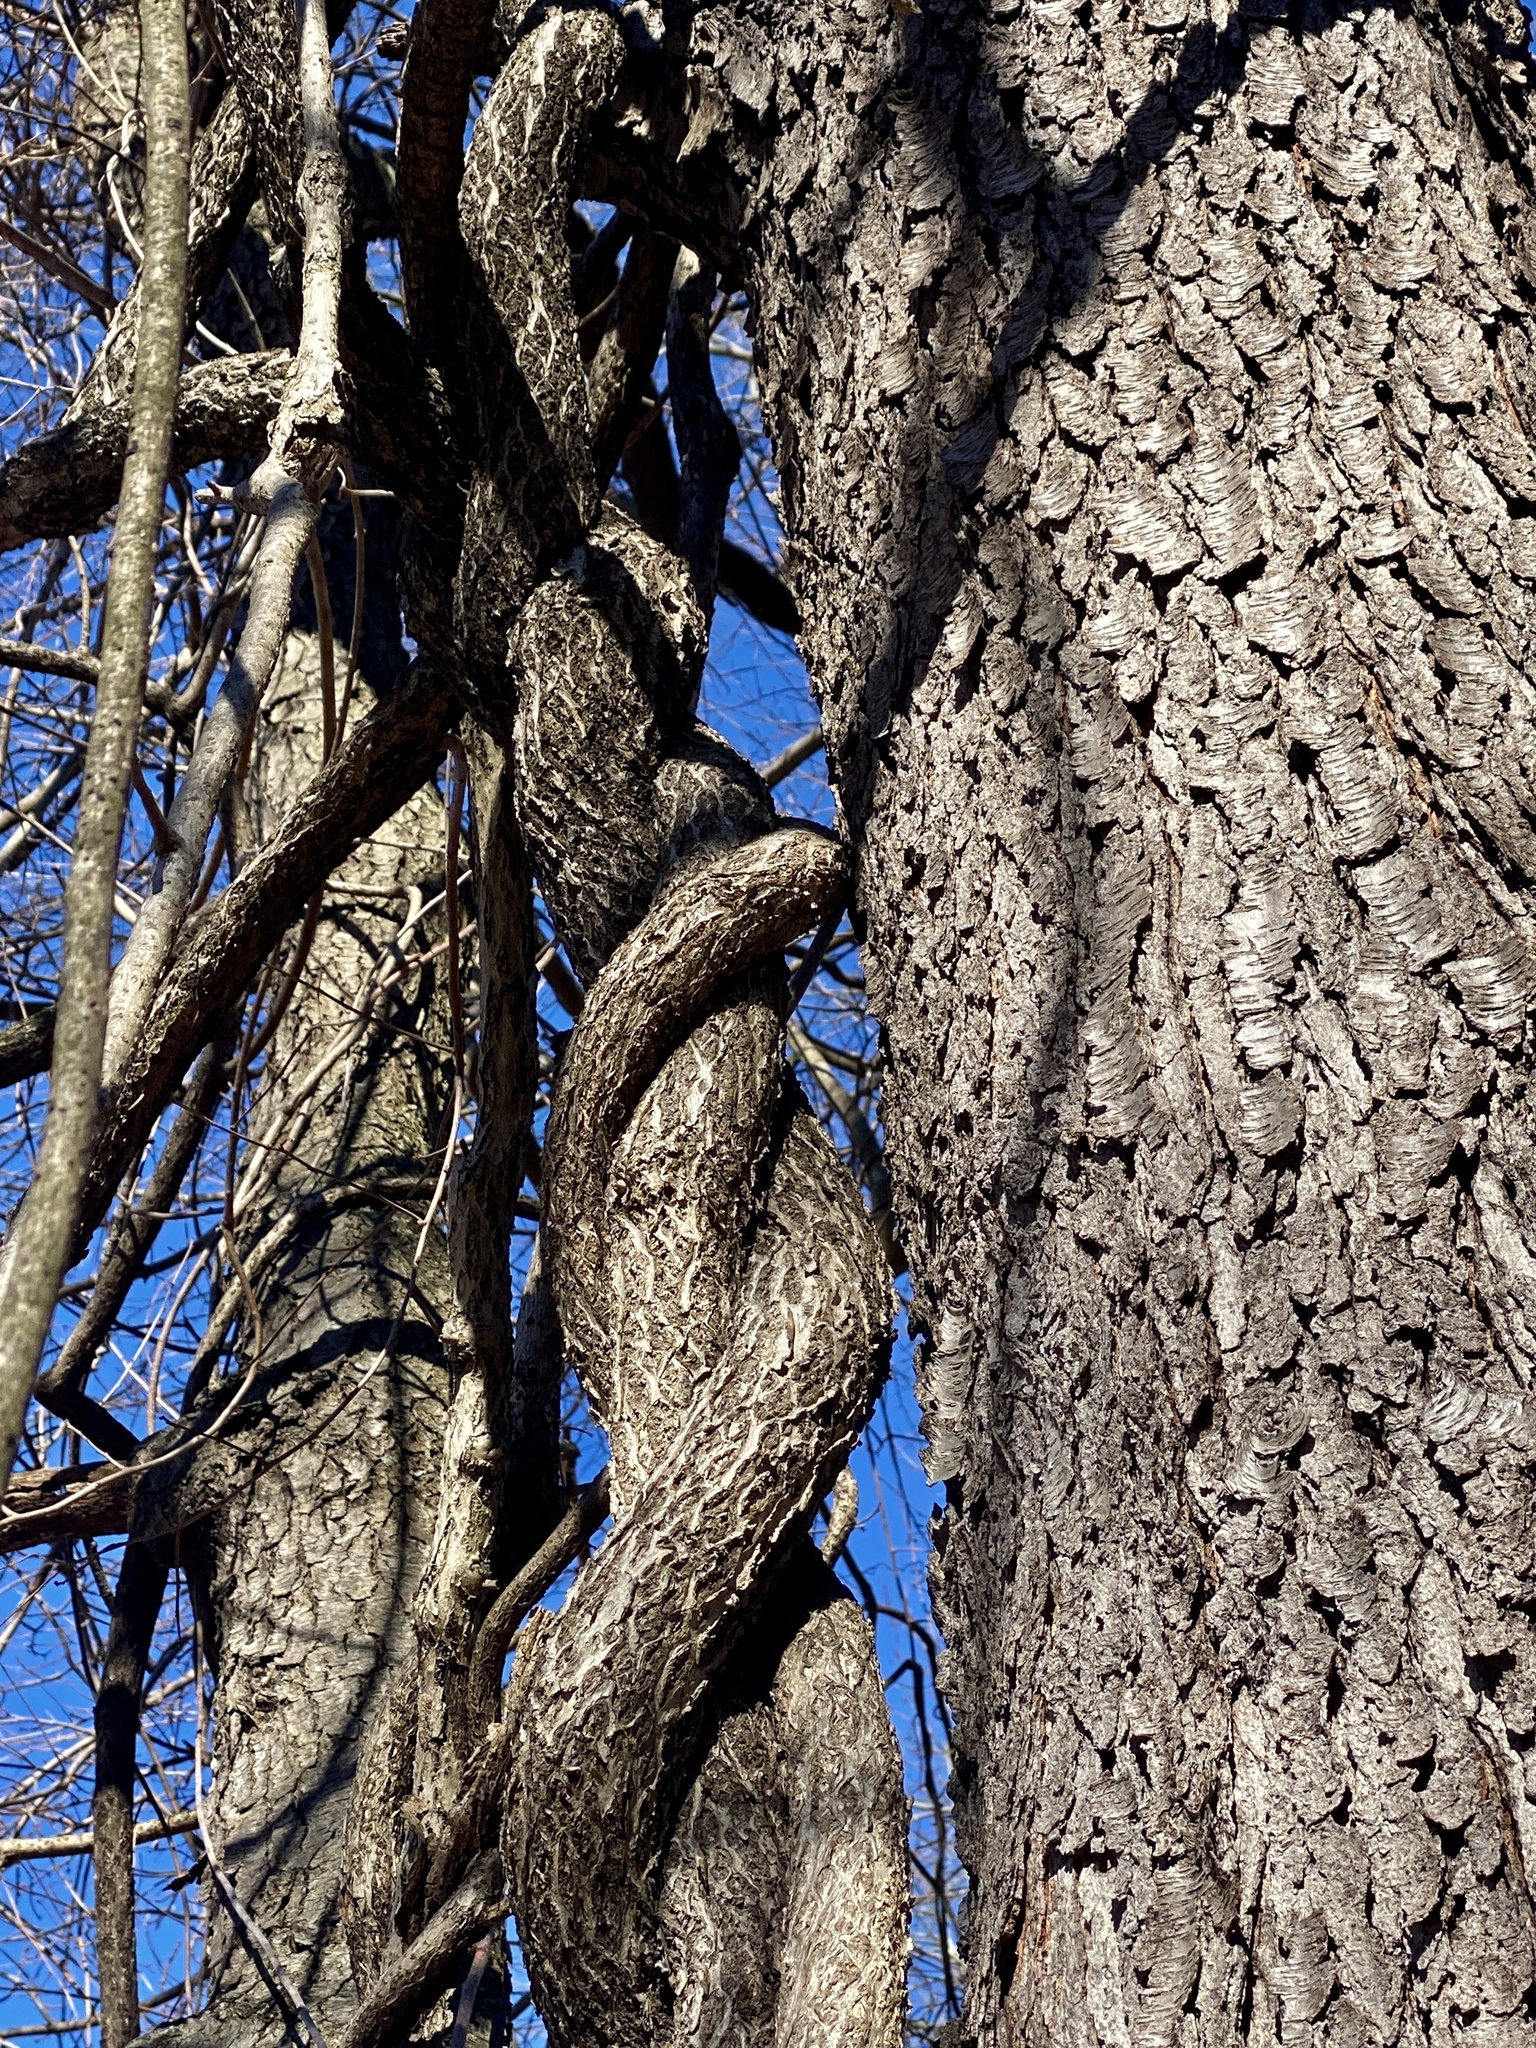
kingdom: Plantae
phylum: Tracheophyta
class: Magnoliopsida
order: Celastrales
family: Celastraceae
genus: Celastrus
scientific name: Celastrus orbiculatus
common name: Oriental bittersweet
